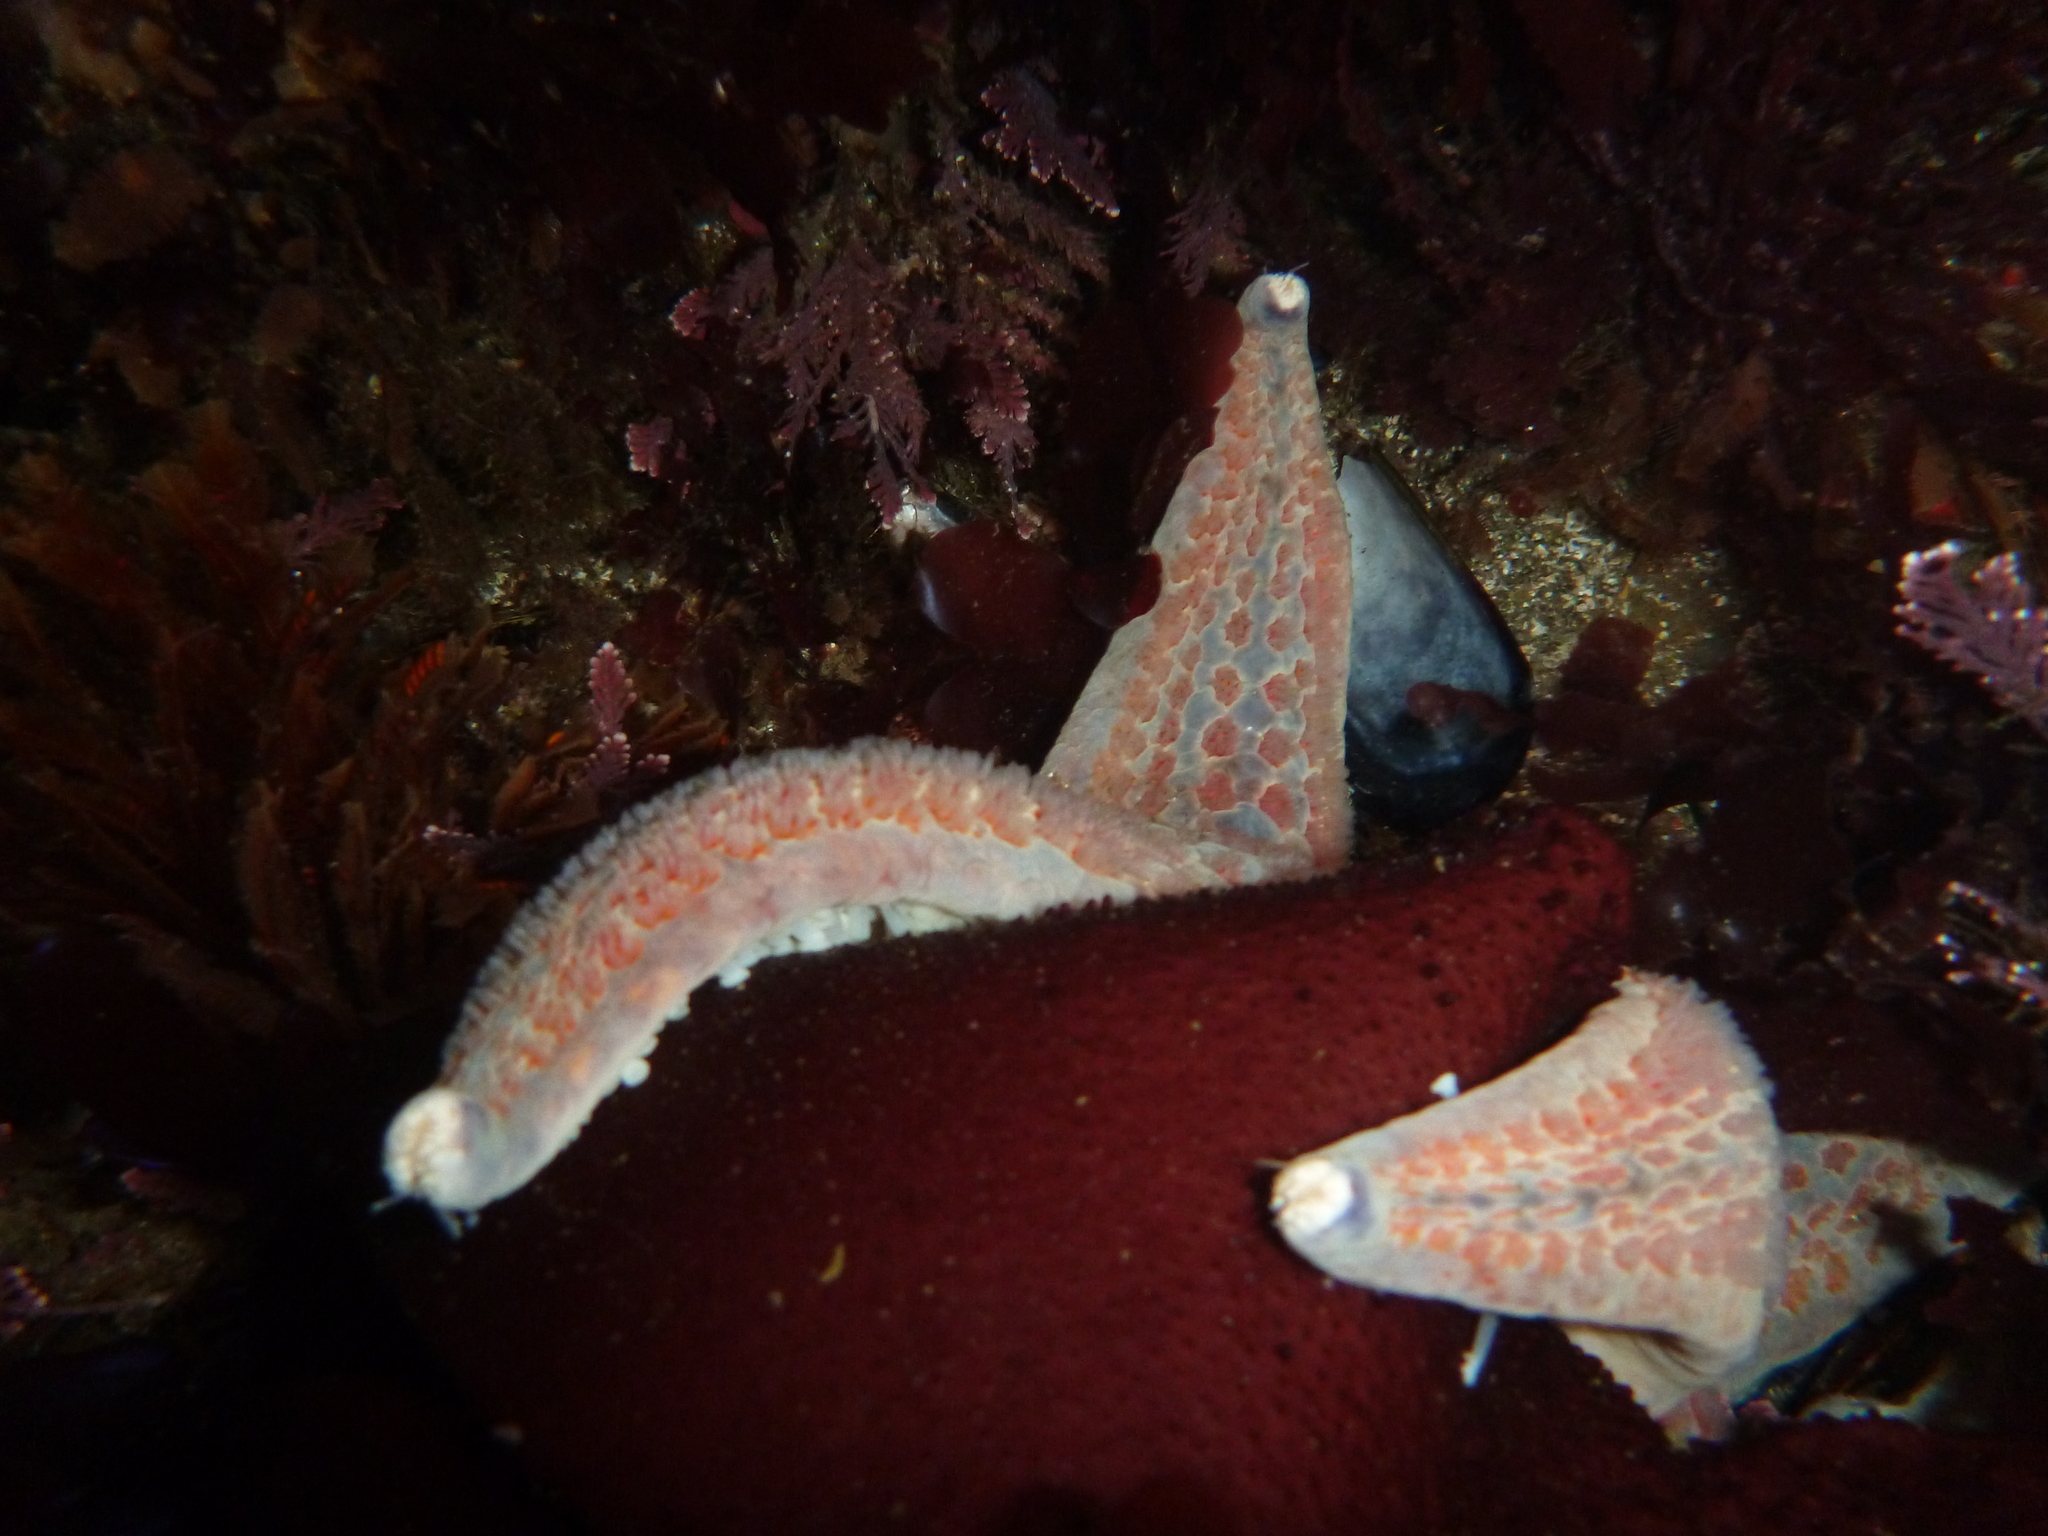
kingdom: Animalia
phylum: Echinodermata
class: Asteroidea
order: Valvatida
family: Asteropseidae
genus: Dermasterias
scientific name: Dermasterias imbricata
